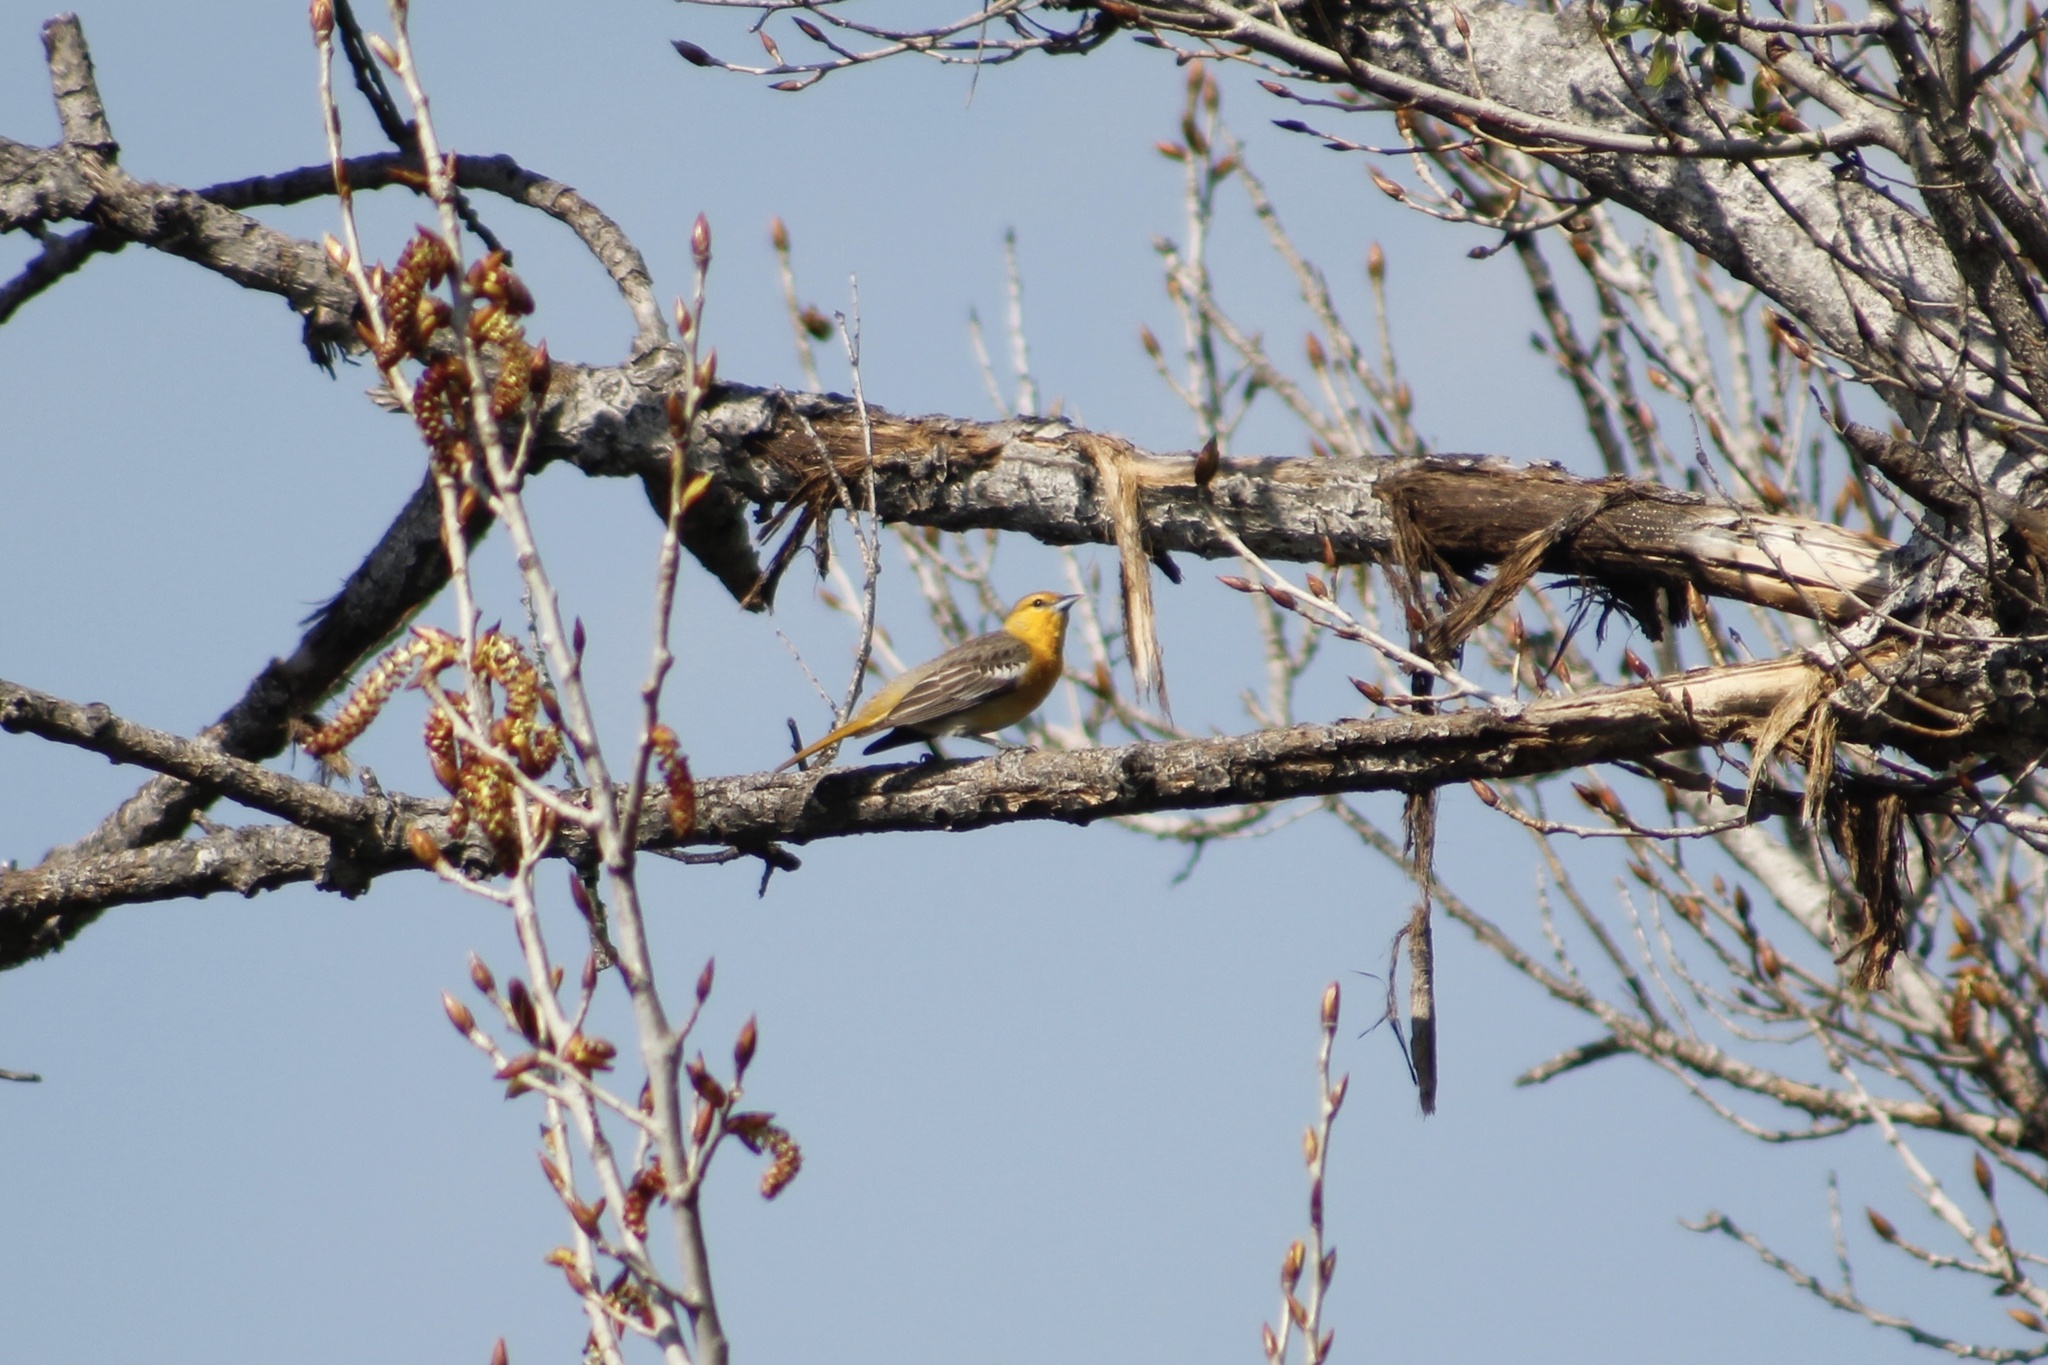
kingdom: Animalia
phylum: Chordata
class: Aves
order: Passeriformes
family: Icteridae
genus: Icterus
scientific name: Icterus bullockii
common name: Bullock's oriole
